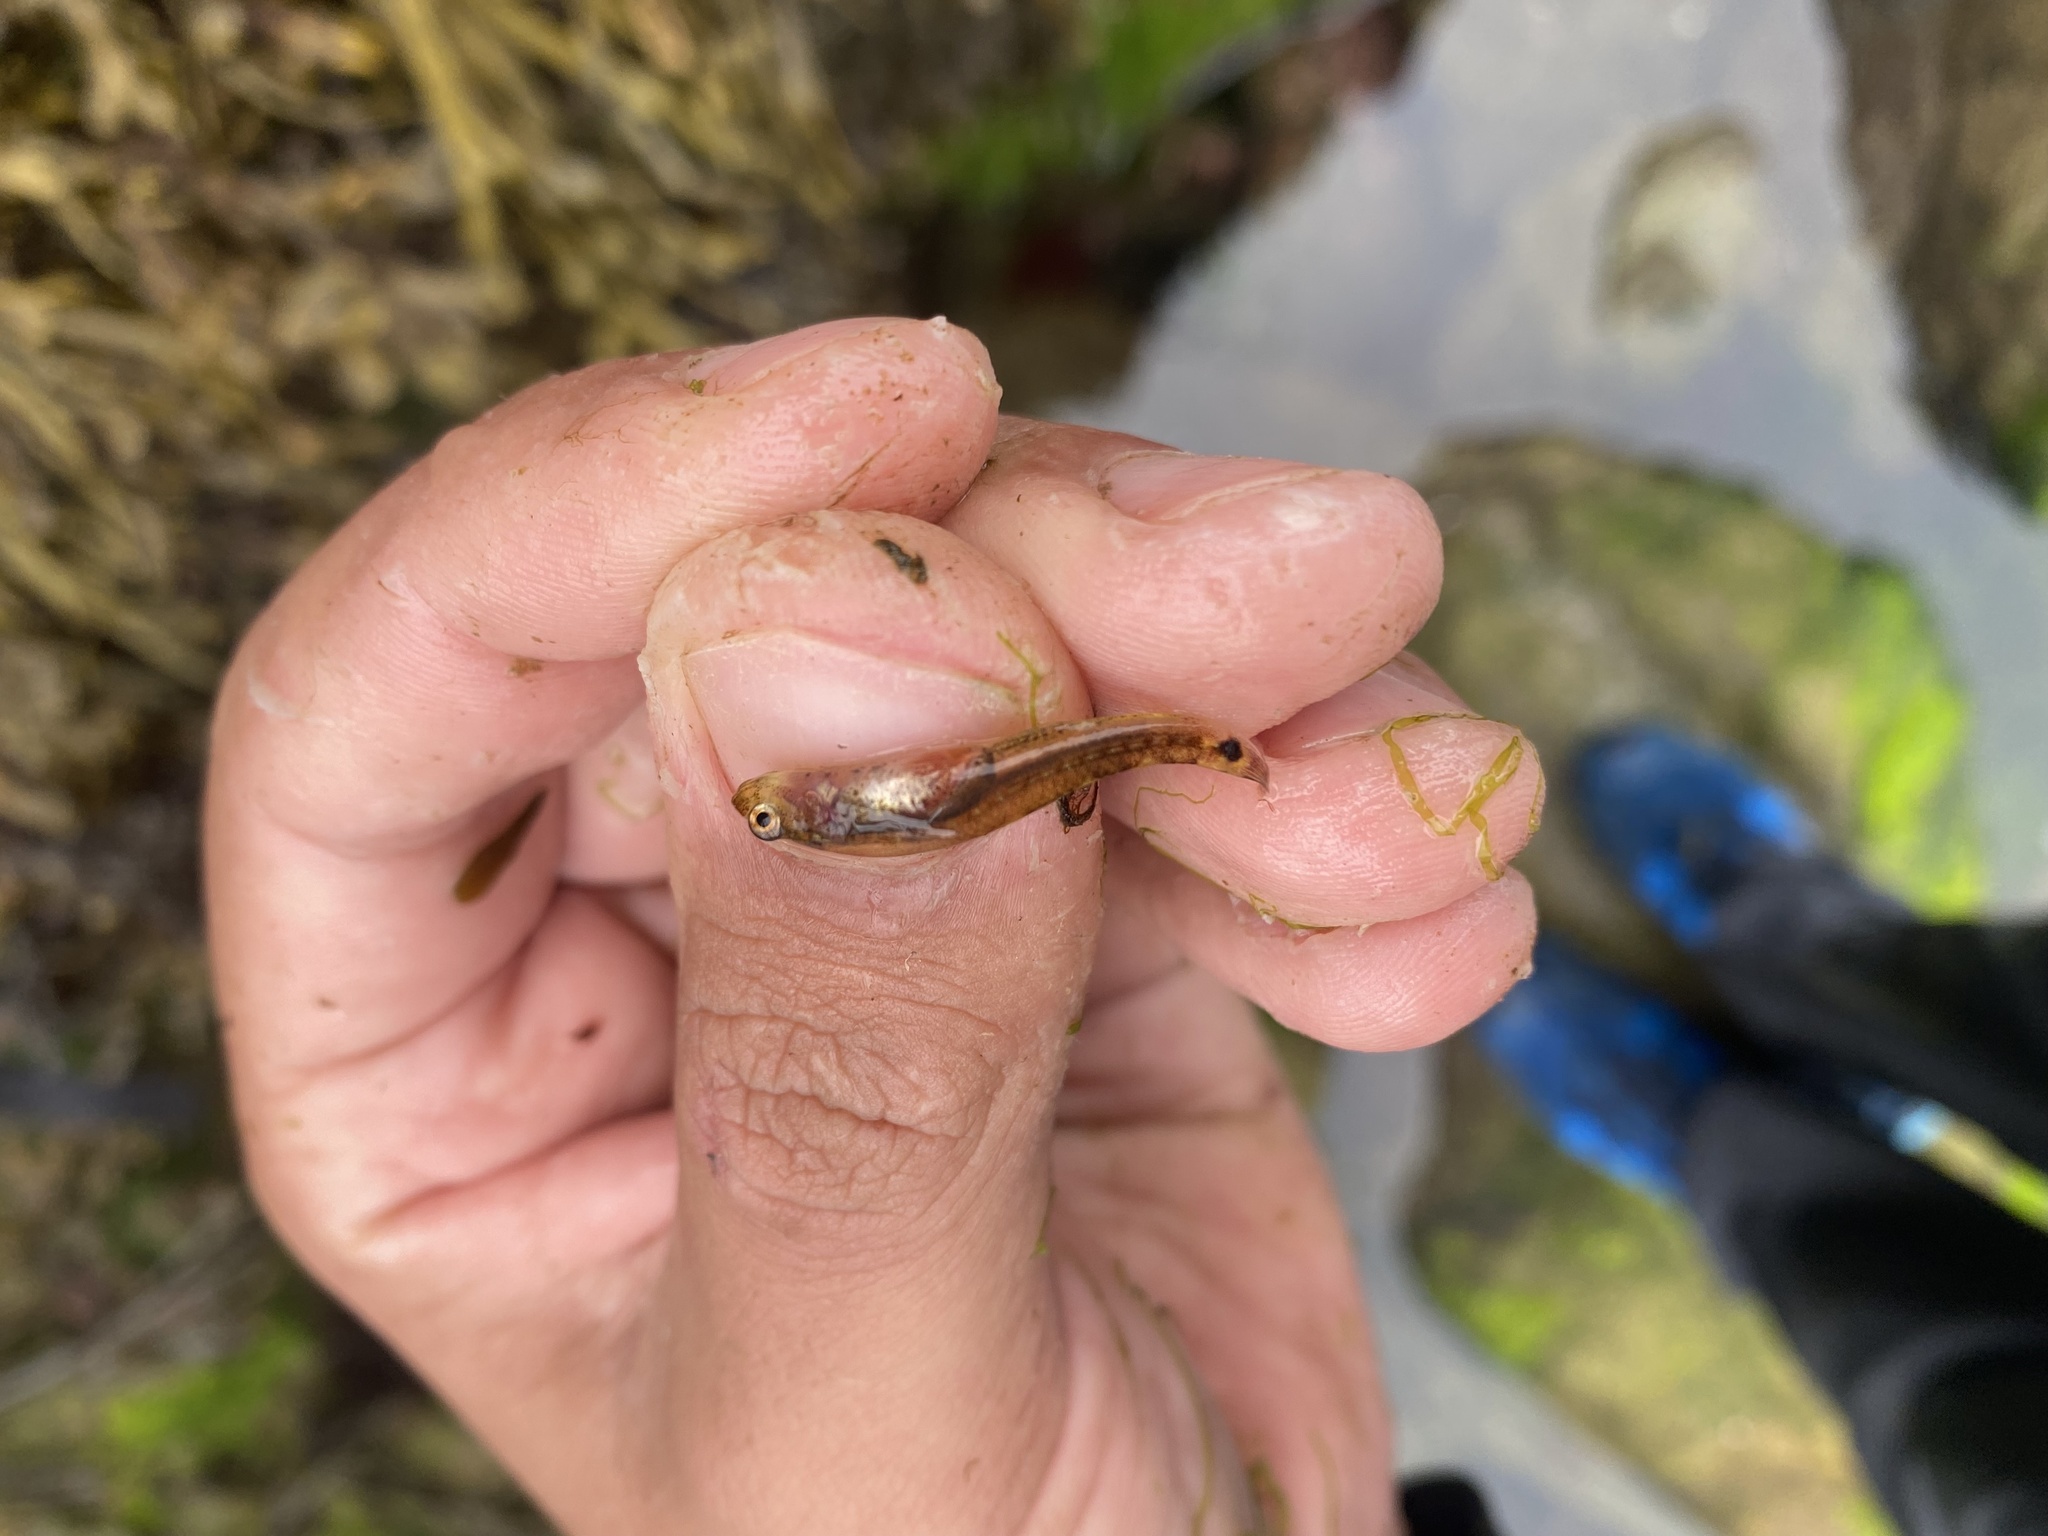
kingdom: Animalia
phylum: Chordata
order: Perciformes
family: Gobiidae
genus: Gobiusculus
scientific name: Gobiusculus flavescens
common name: Two-spotted goby
